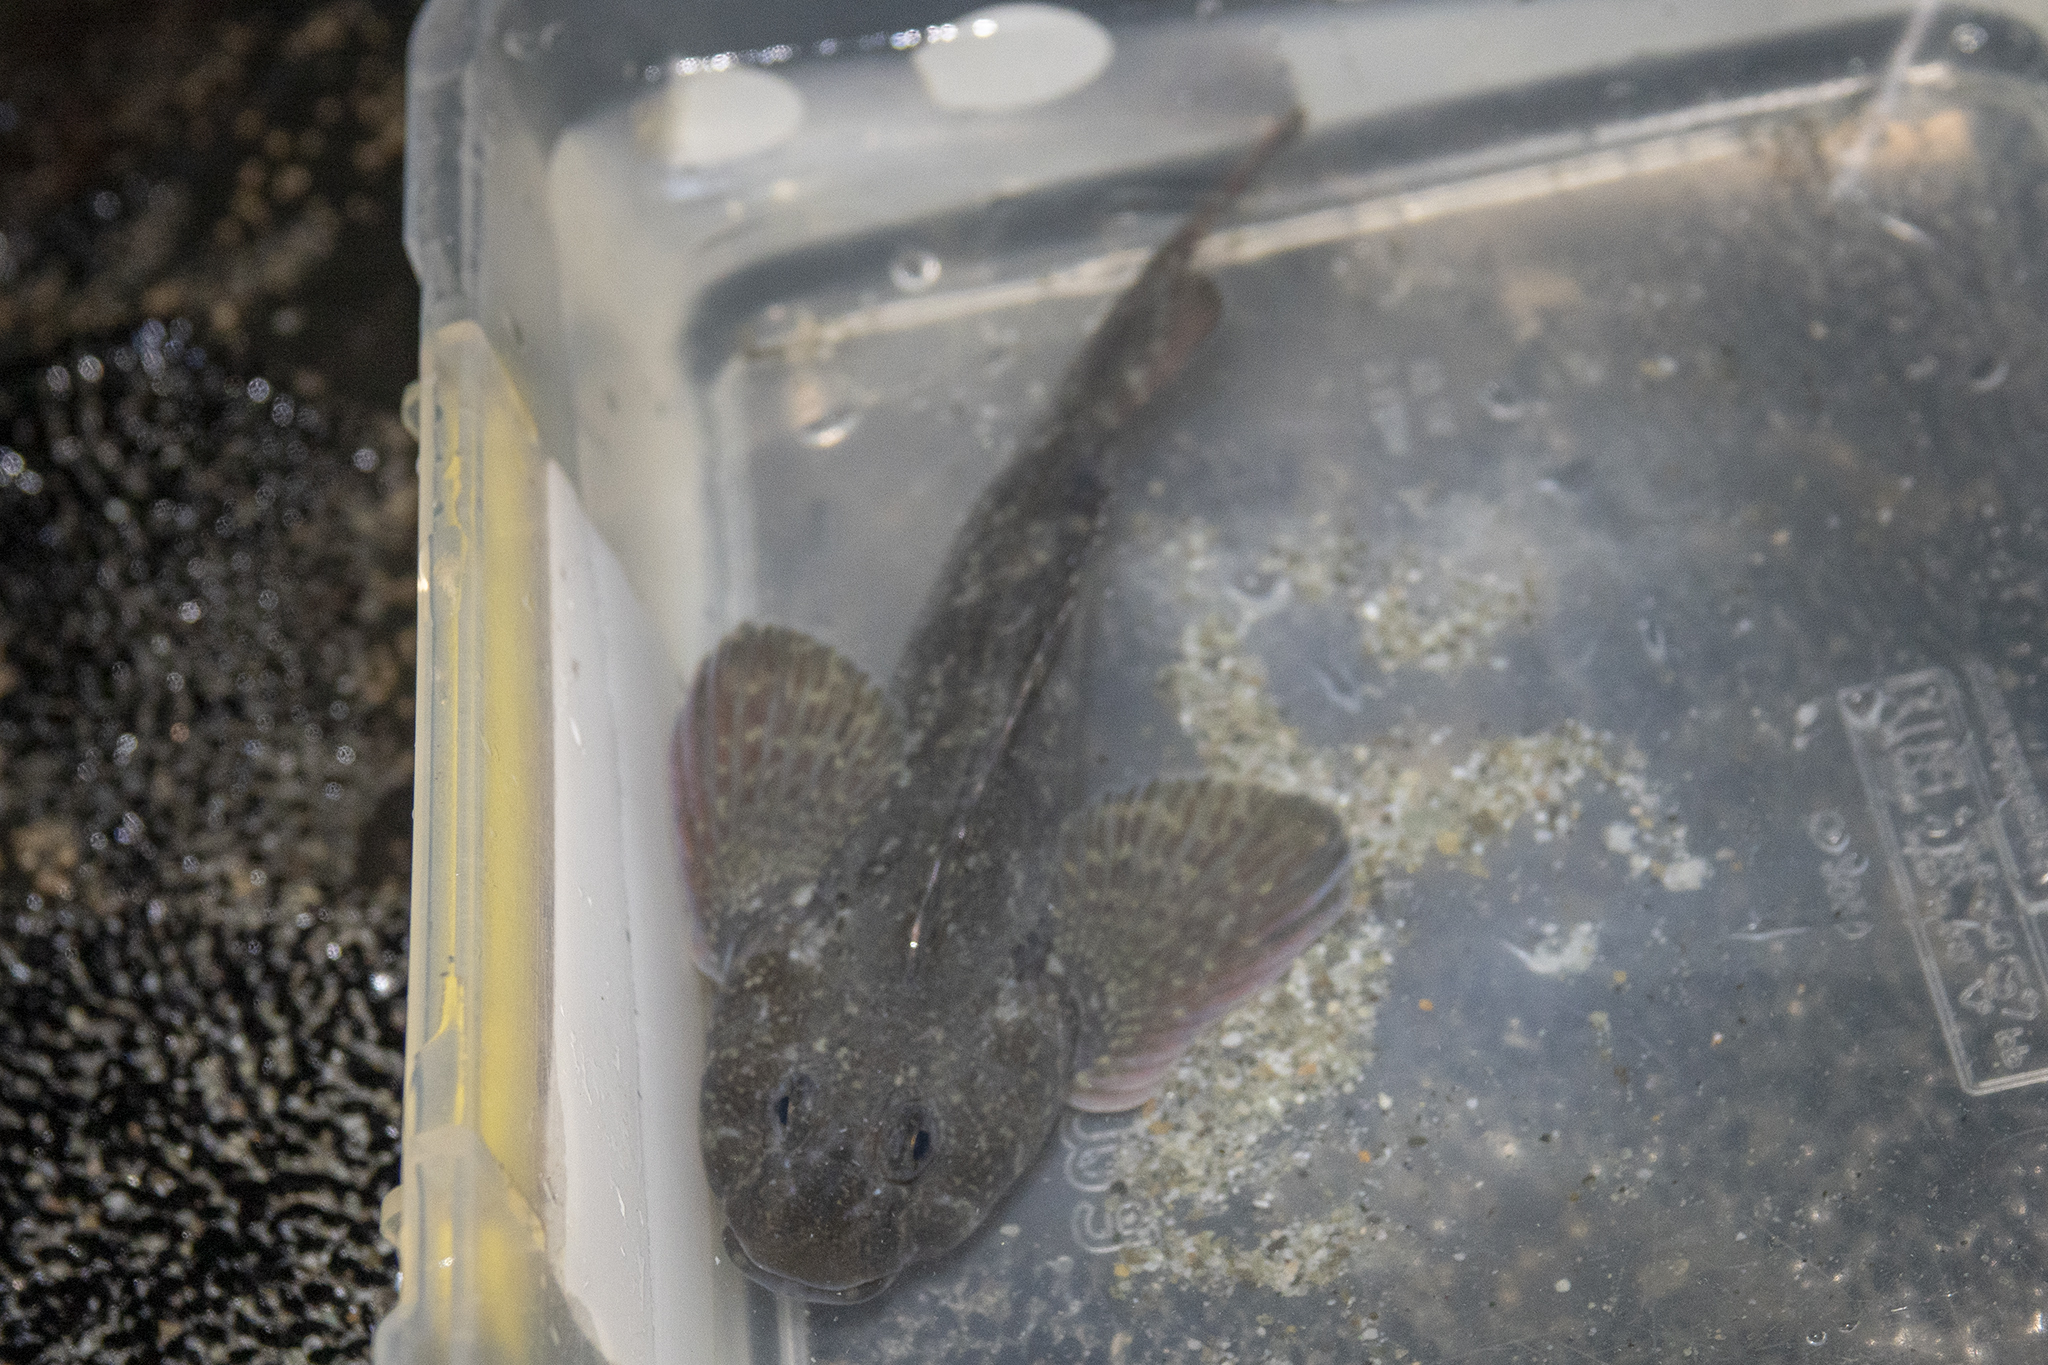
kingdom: Animalia
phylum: Chordata
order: Perciformes
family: Tripterygiidae
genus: Blennodon
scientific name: Blennodon dorsalis
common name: Giant triplefin
